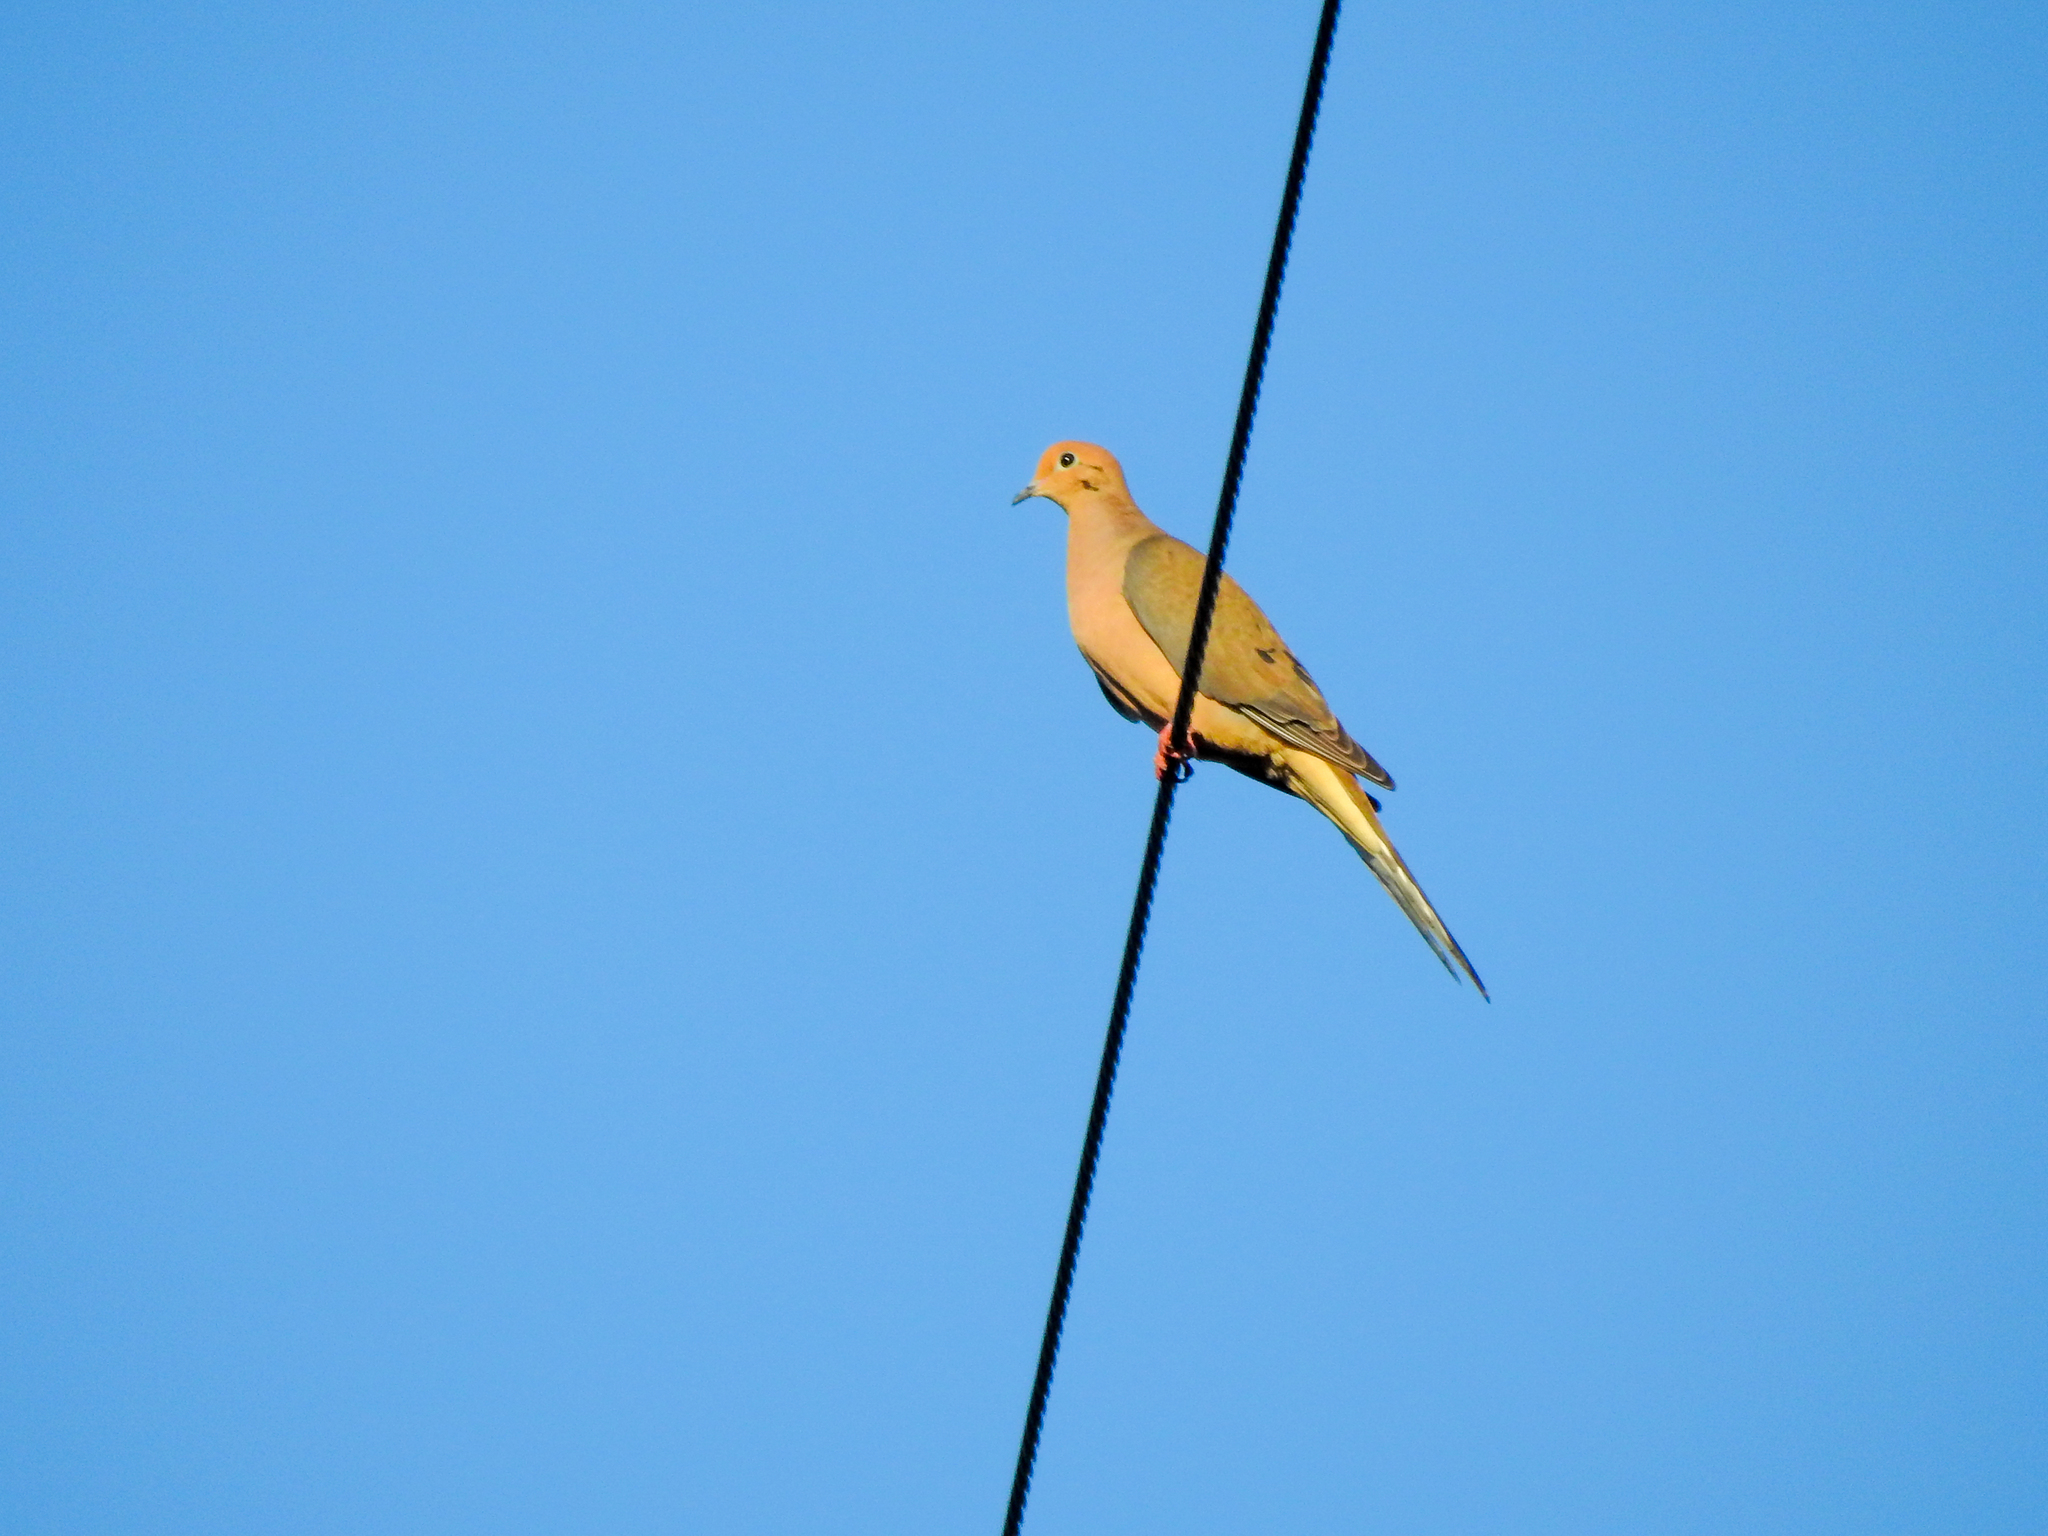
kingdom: Animalia
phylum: Chordata
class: Aves
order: Columbiformes
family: Columbidae
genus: Zenaida
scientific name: Zenaida macroura
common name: Mourning dove
